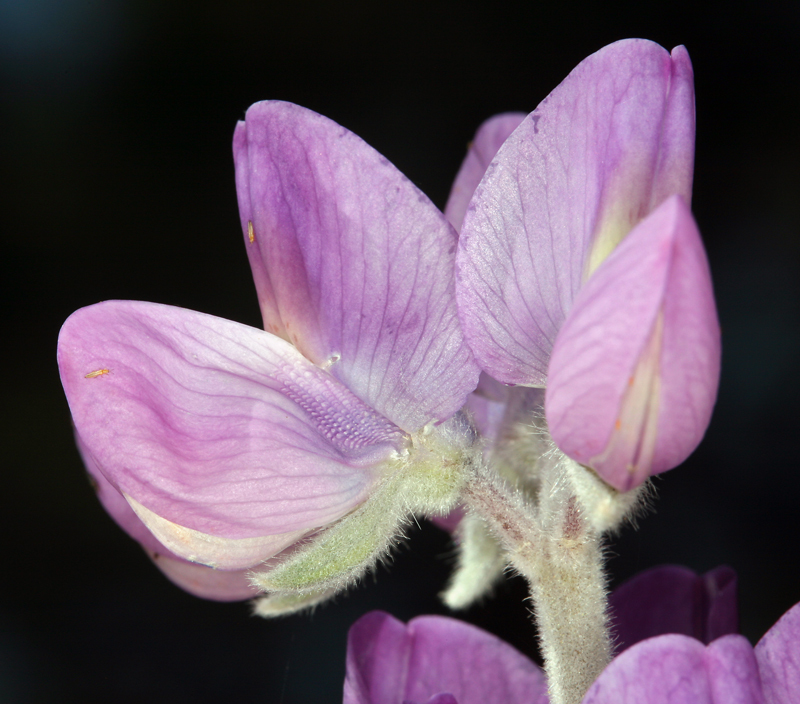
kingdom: Plantae
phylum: Tracheophyta
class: Magnoliopsida
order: Fabales
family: Fabaceae
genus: Lupinus
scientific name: Lupinus magnificus
